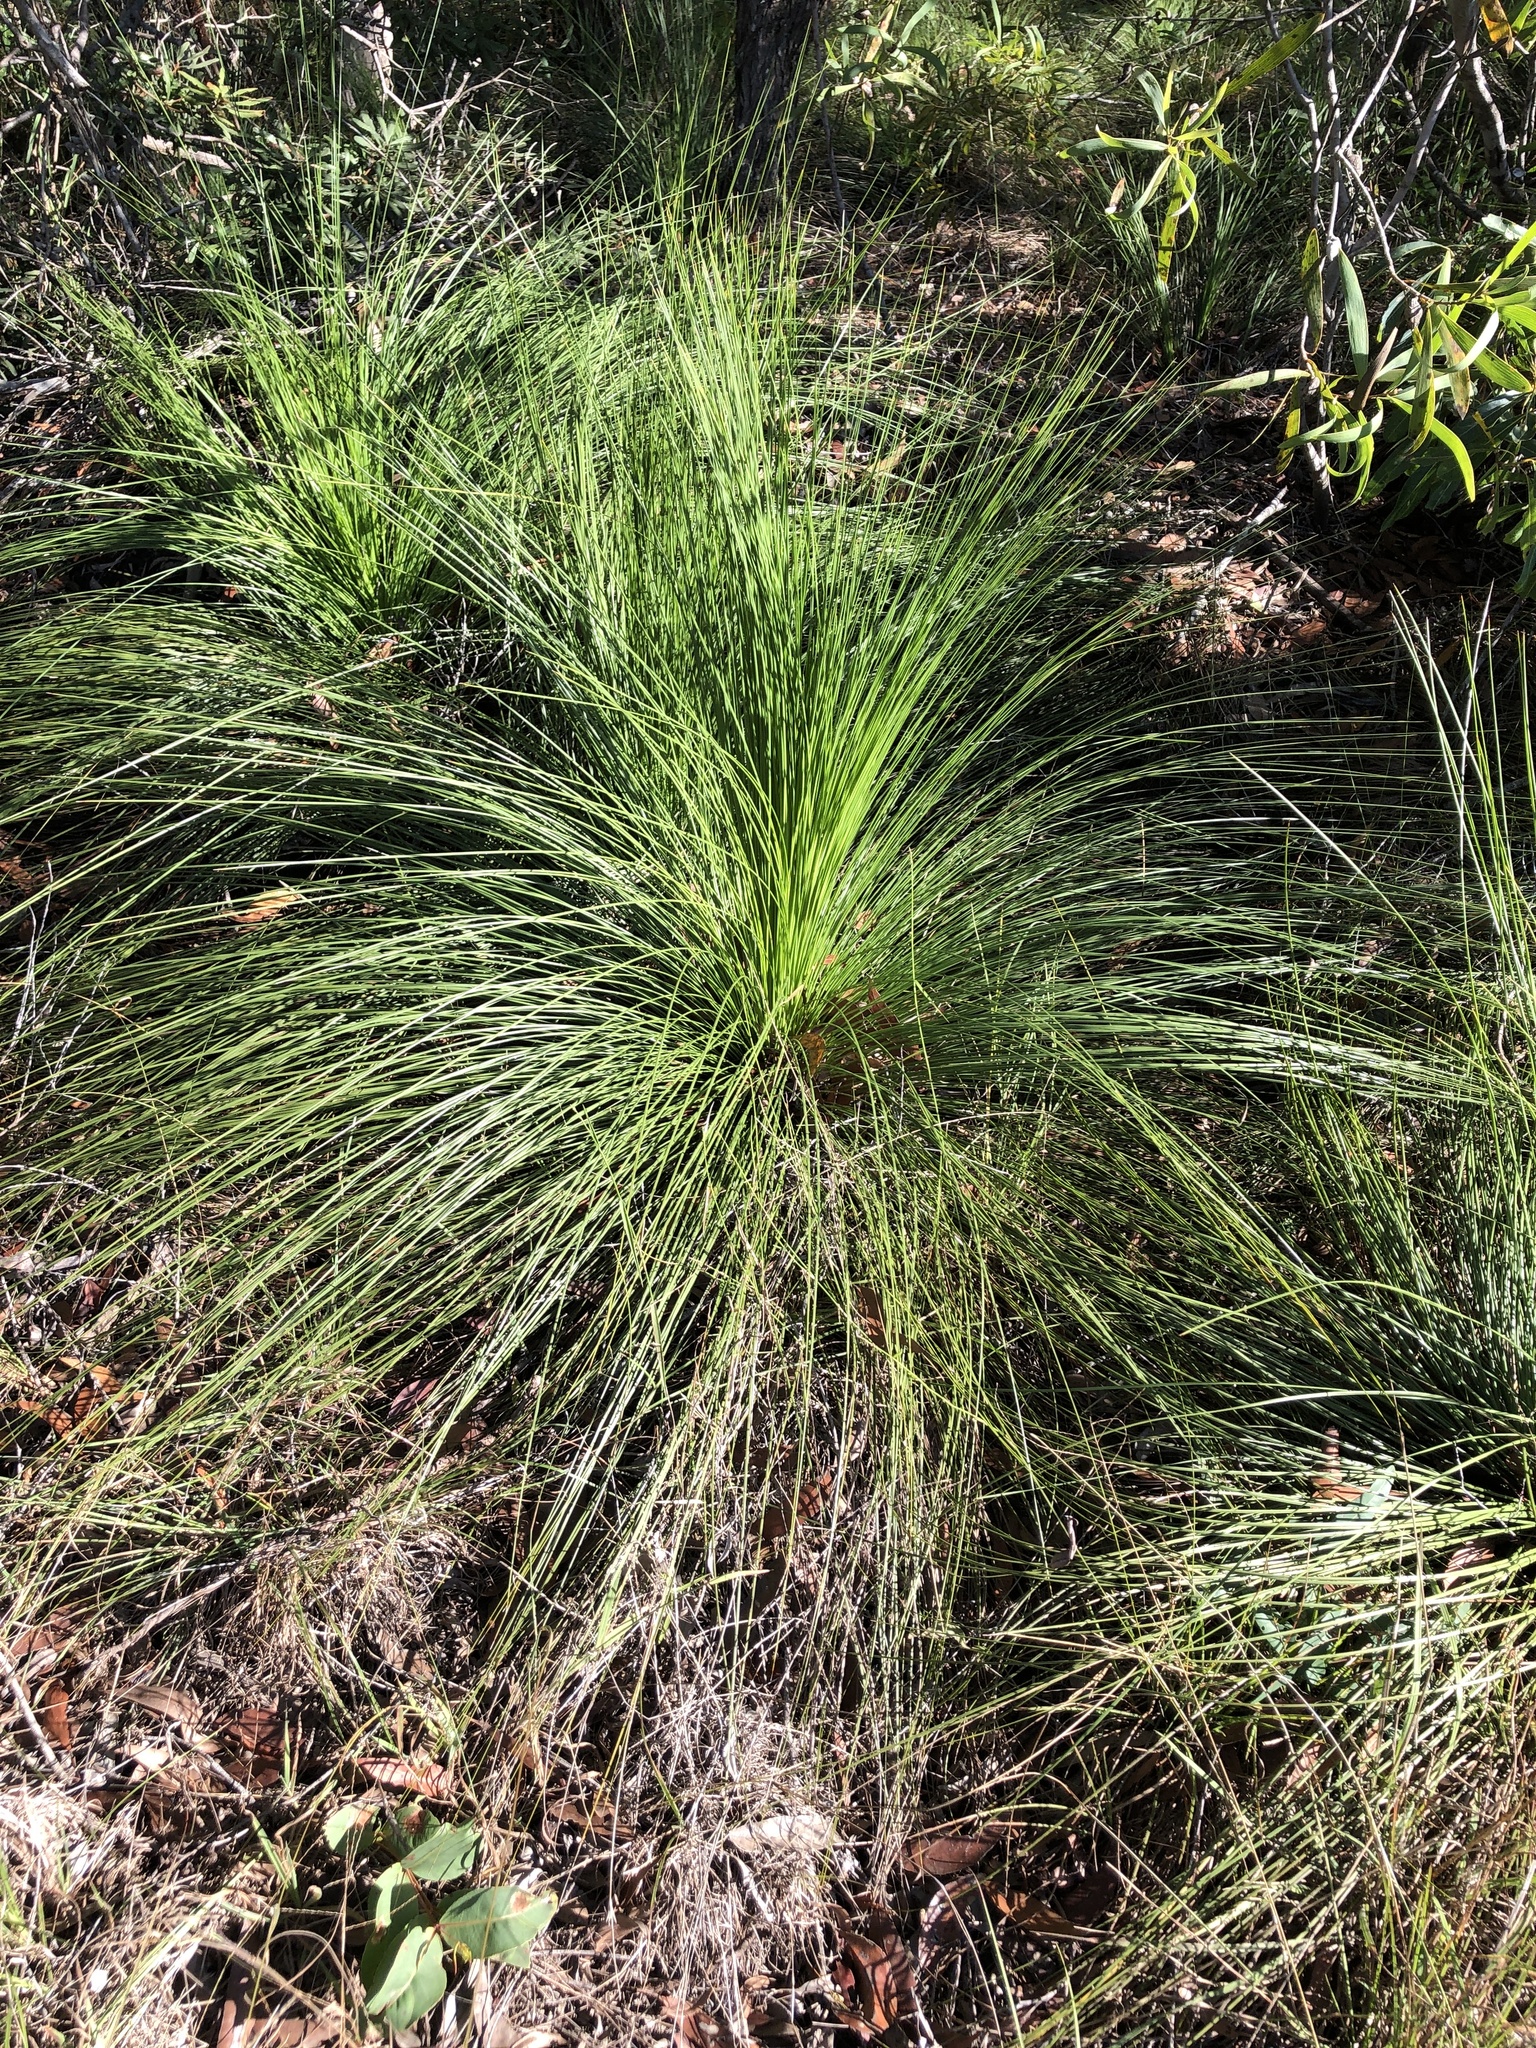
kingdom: Plantae
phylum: Tracheophyta
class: Liliopsida
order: Asparagales
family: Asphodelaceae
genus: Xanthorrhoea
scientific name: Xanthorrhoea latifolia
